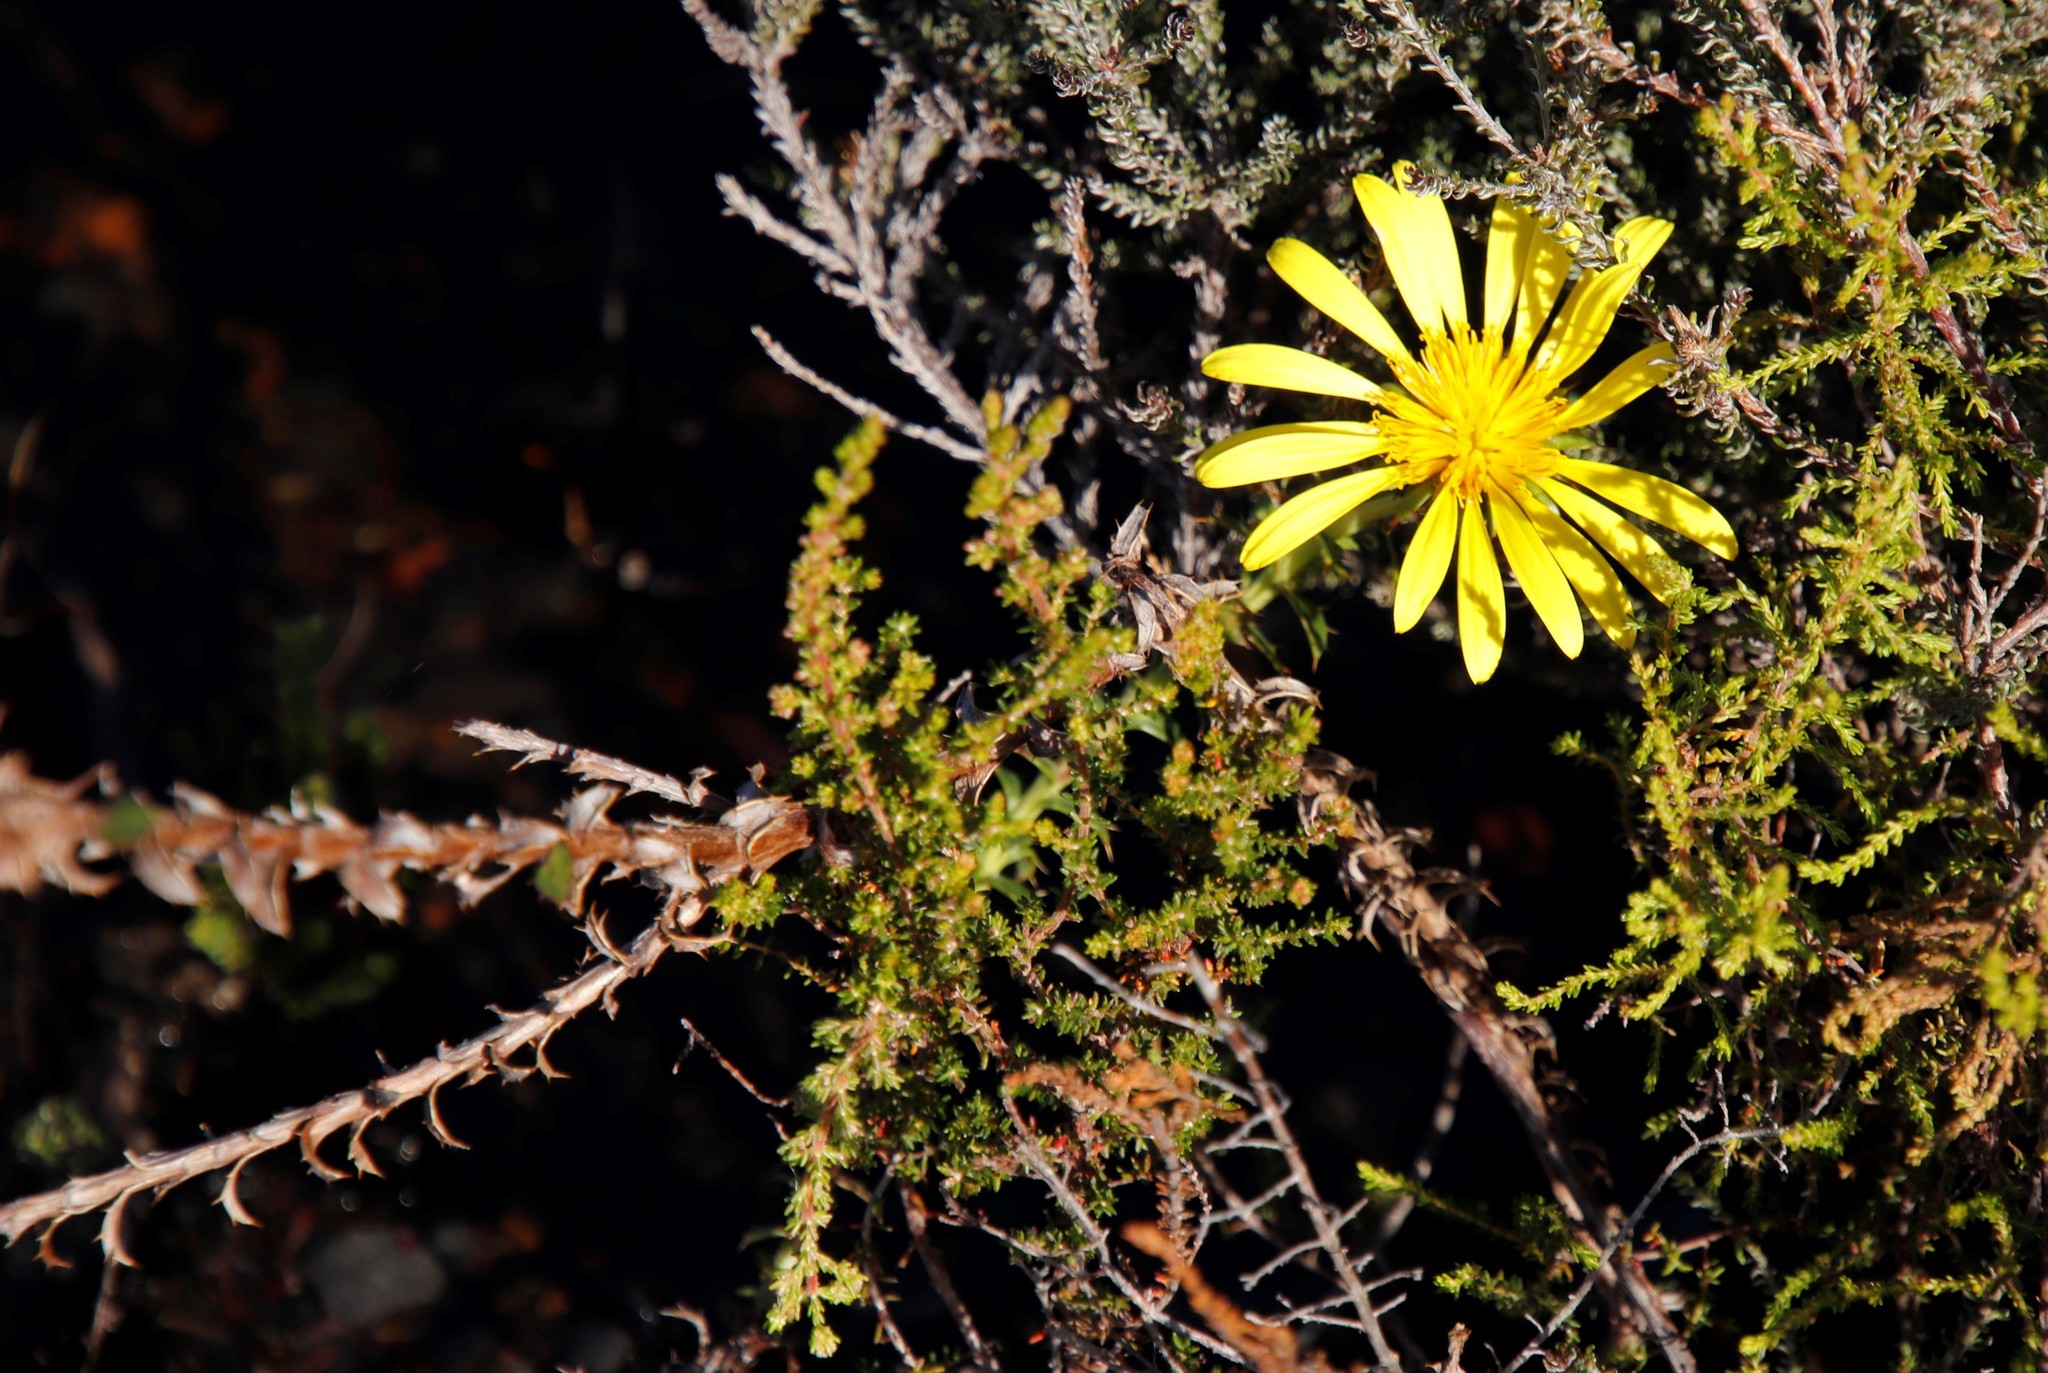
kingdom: Plantae
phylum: Tracheophyta
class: Magnoliopsida
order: Asterales
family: Asteraceae
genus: Cullumia
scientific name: Cullumia setosa
